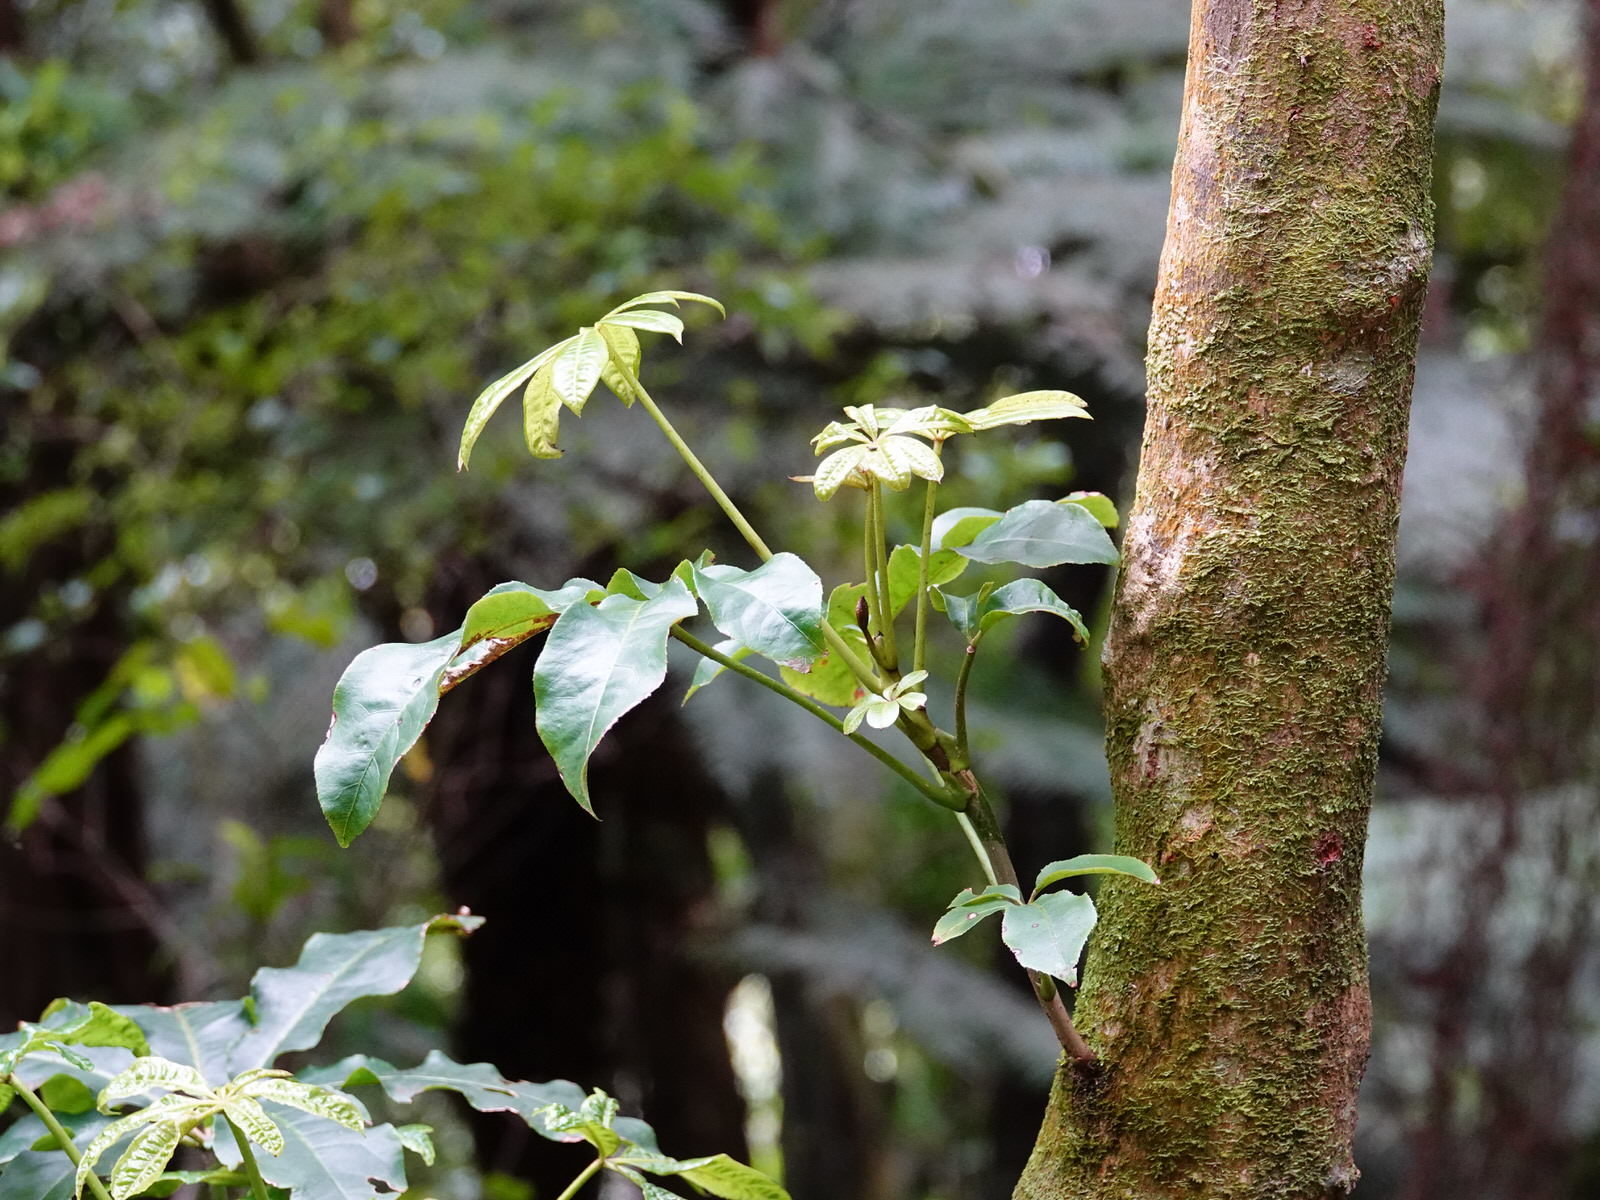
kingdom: Plantae
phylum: Tracheophyta
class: Magnoliopsida
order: Apiales
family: Araliaceae
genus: Schefflera
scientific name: Schefflera digitata
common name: Pate
